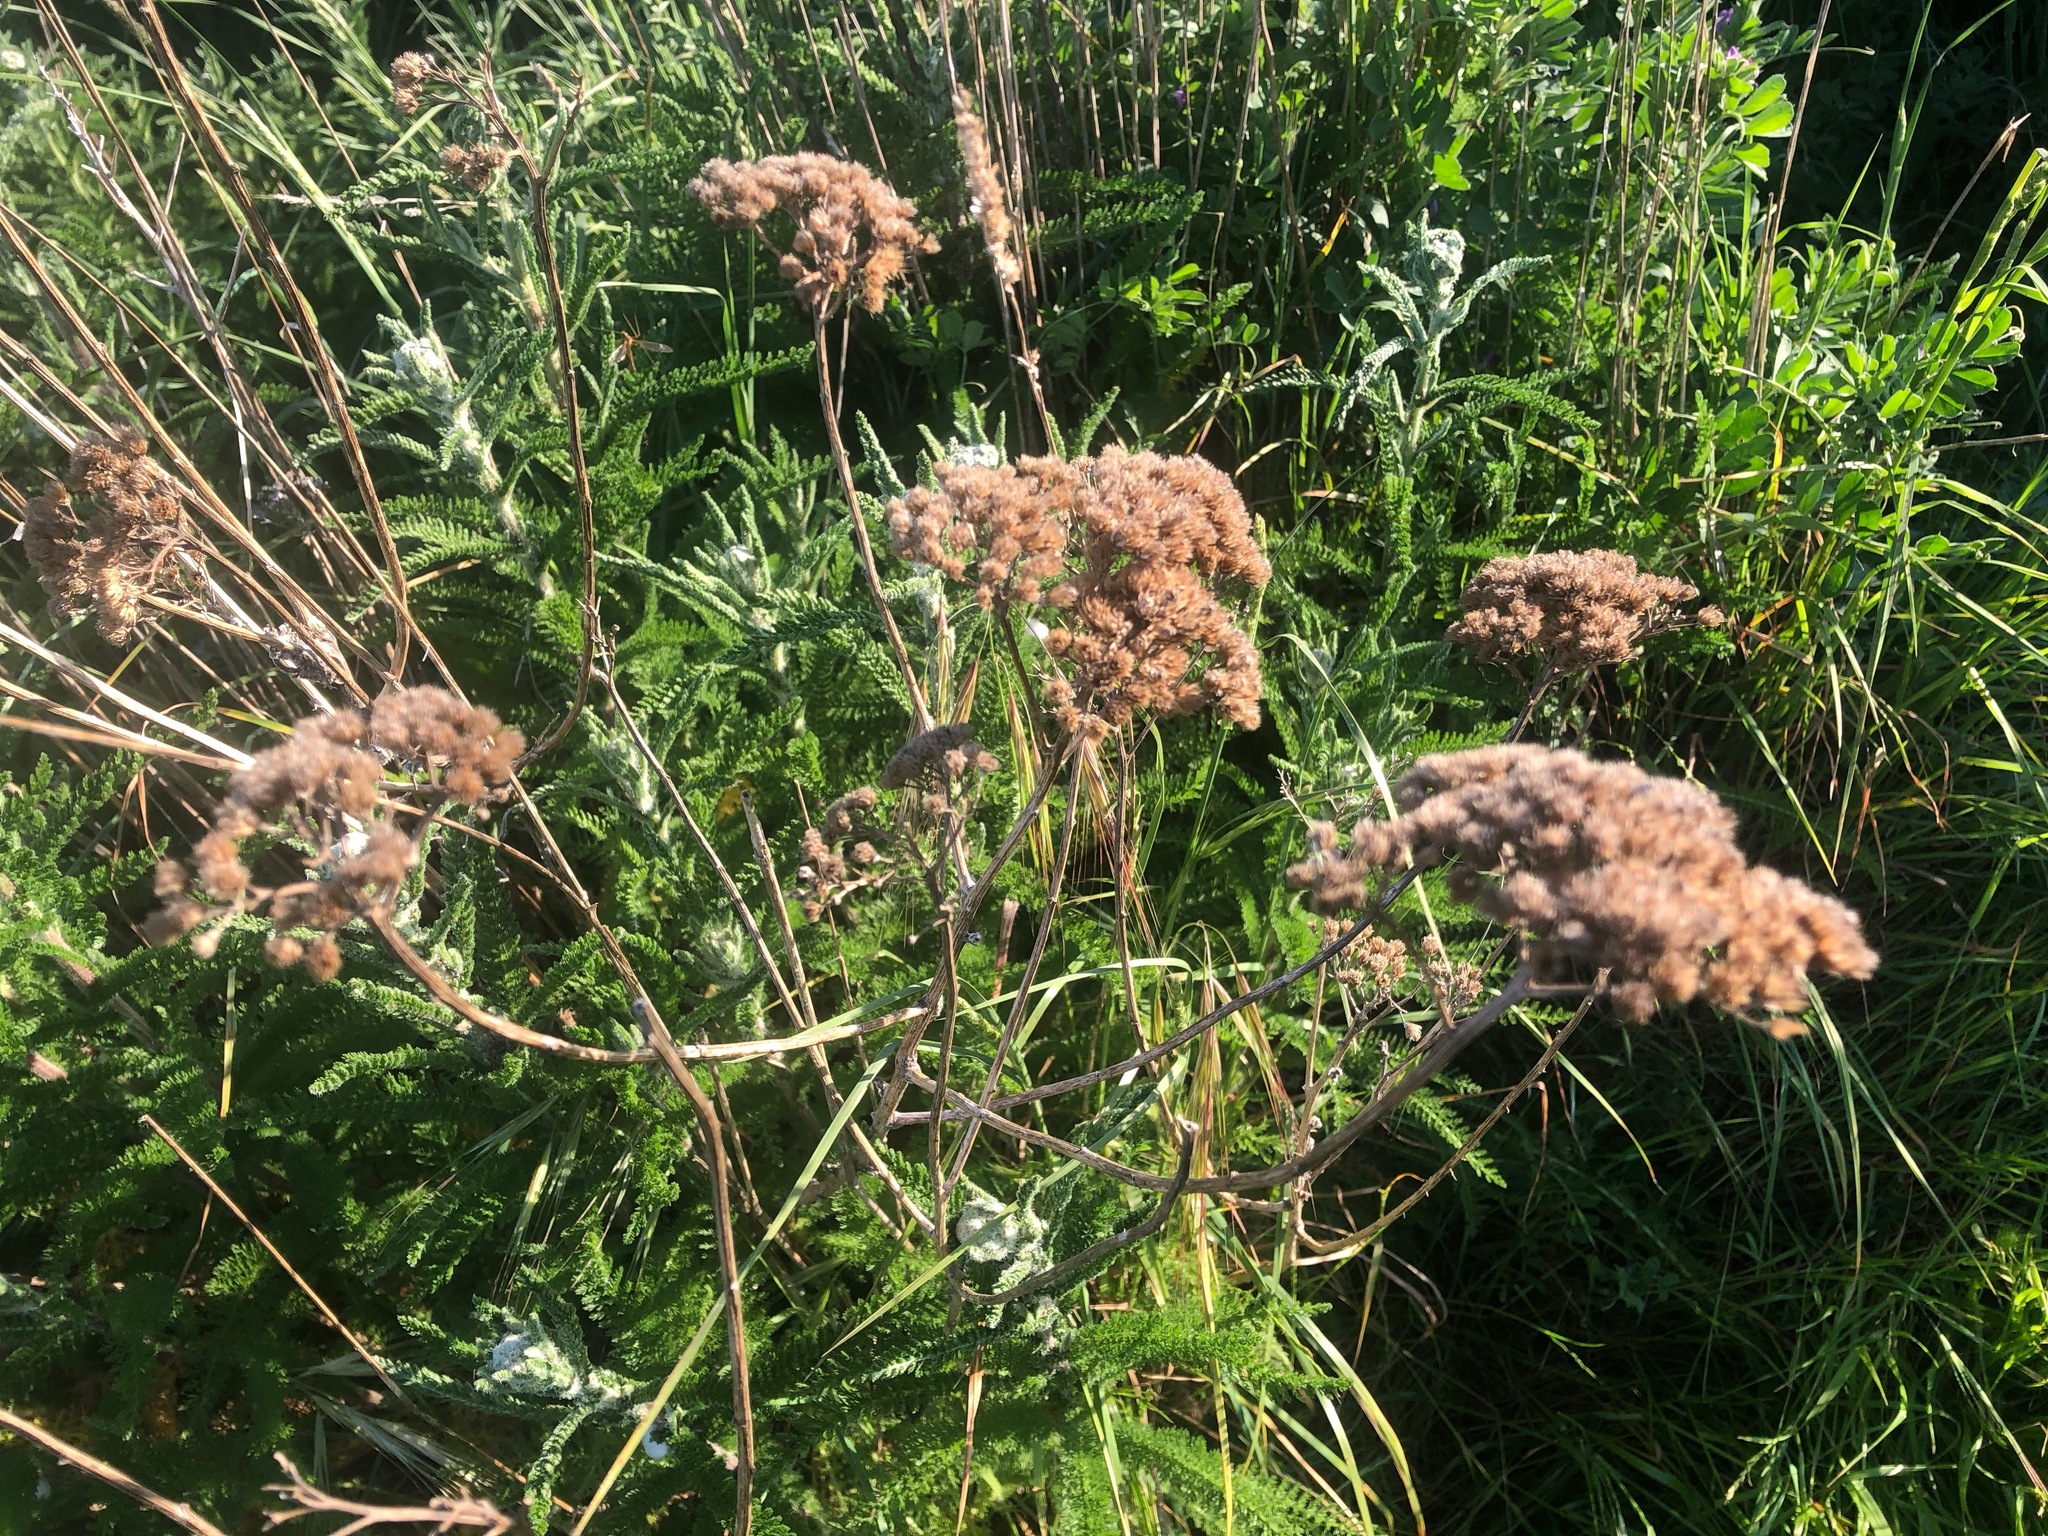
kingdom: Plantae
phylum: Tracheophyta
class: Magnoliopsida
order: Asterales
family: Asteraceae
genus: Achillea
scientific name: Achillea millefolium
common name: Yarrow
